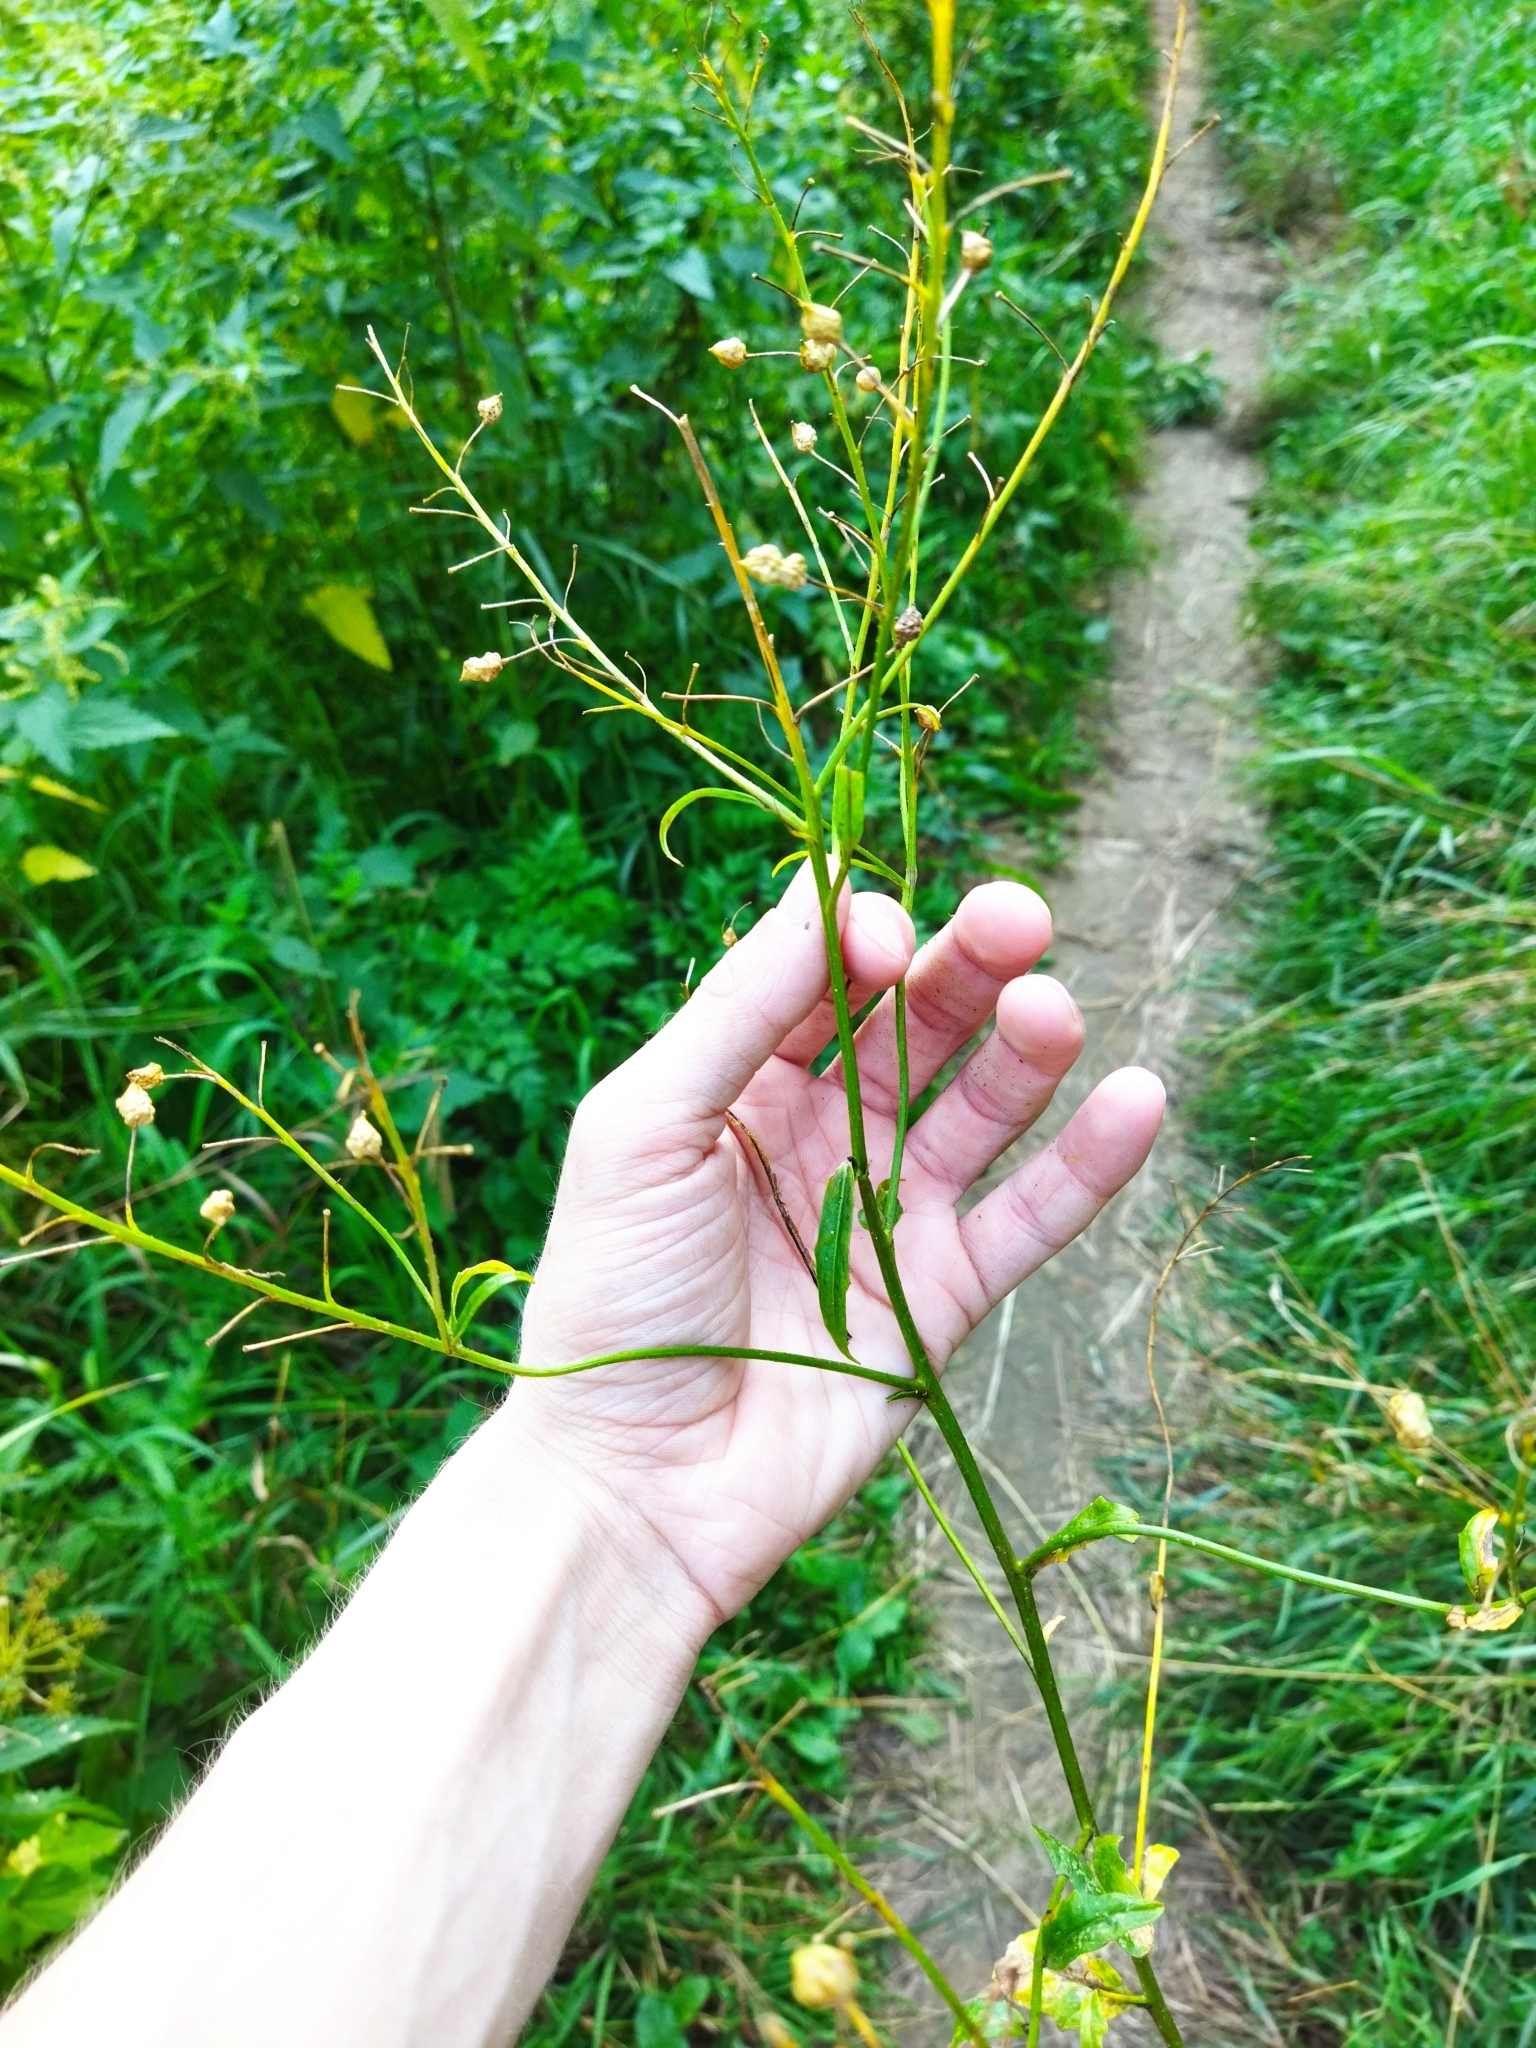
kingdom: Plantae
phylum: Tracheophyta
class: Magnoliopsida
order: Brassicales
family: Brassicaceae
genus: Bunias
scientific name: Bunias orientalis
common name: Warty-cabbage
